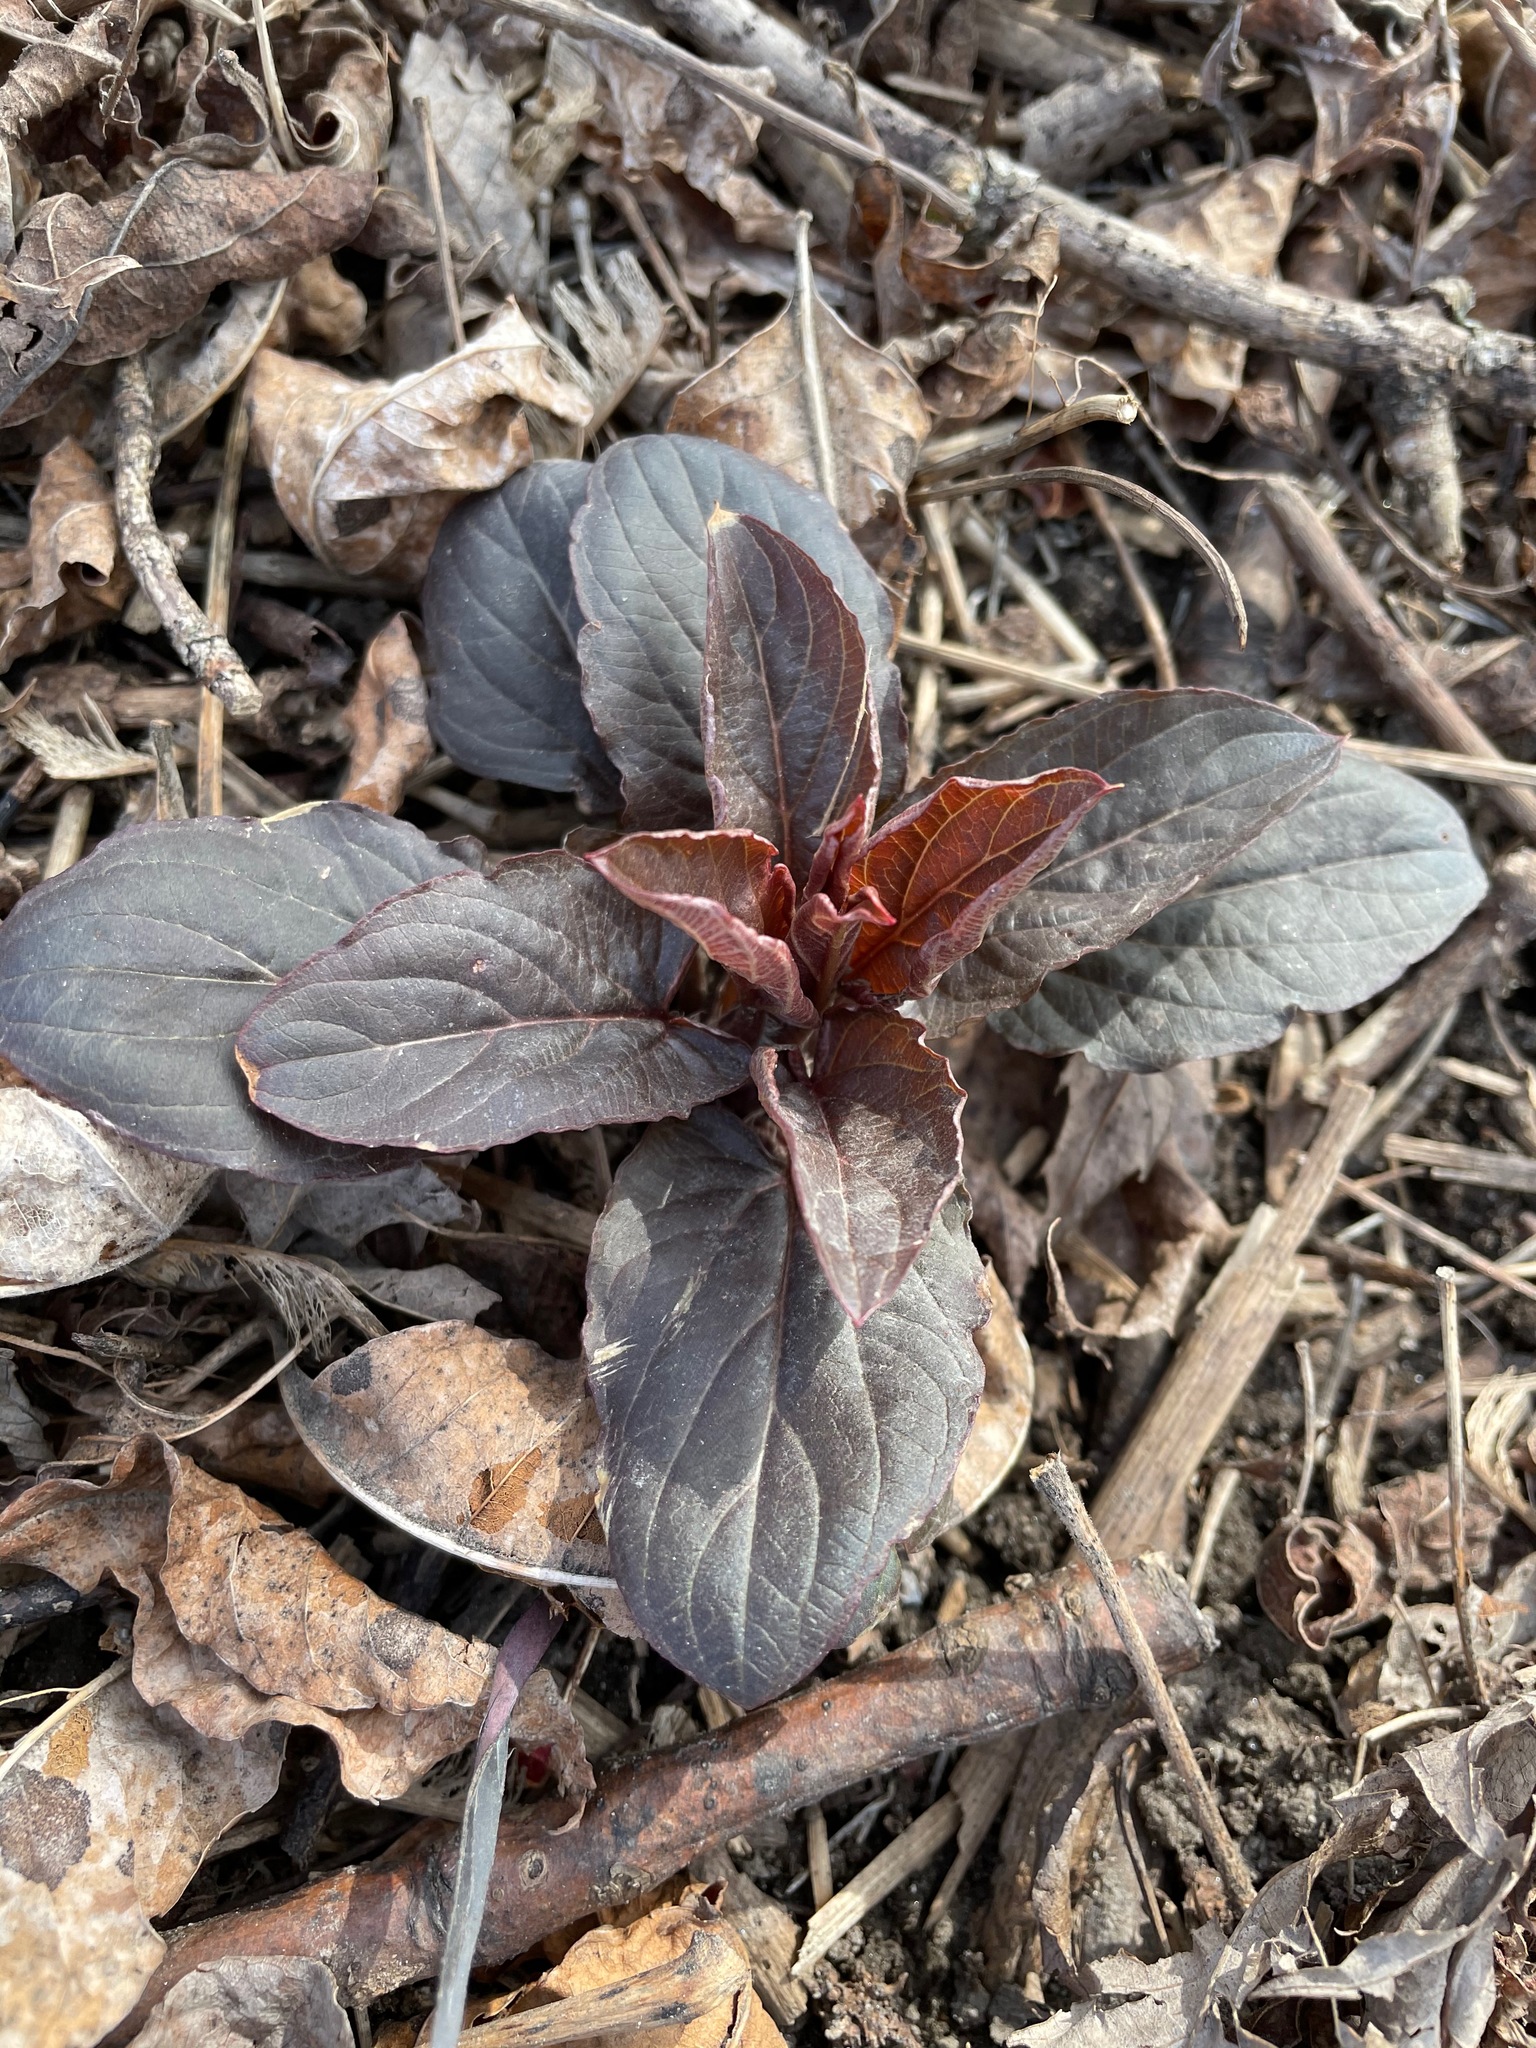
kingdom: Plantae
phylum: Tracheophyta
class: Magnoliopsida
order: Ericales
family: Primulaceae
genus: Lysimachia
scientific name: Lysimachia ciliata
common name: Fringed loosestrife
